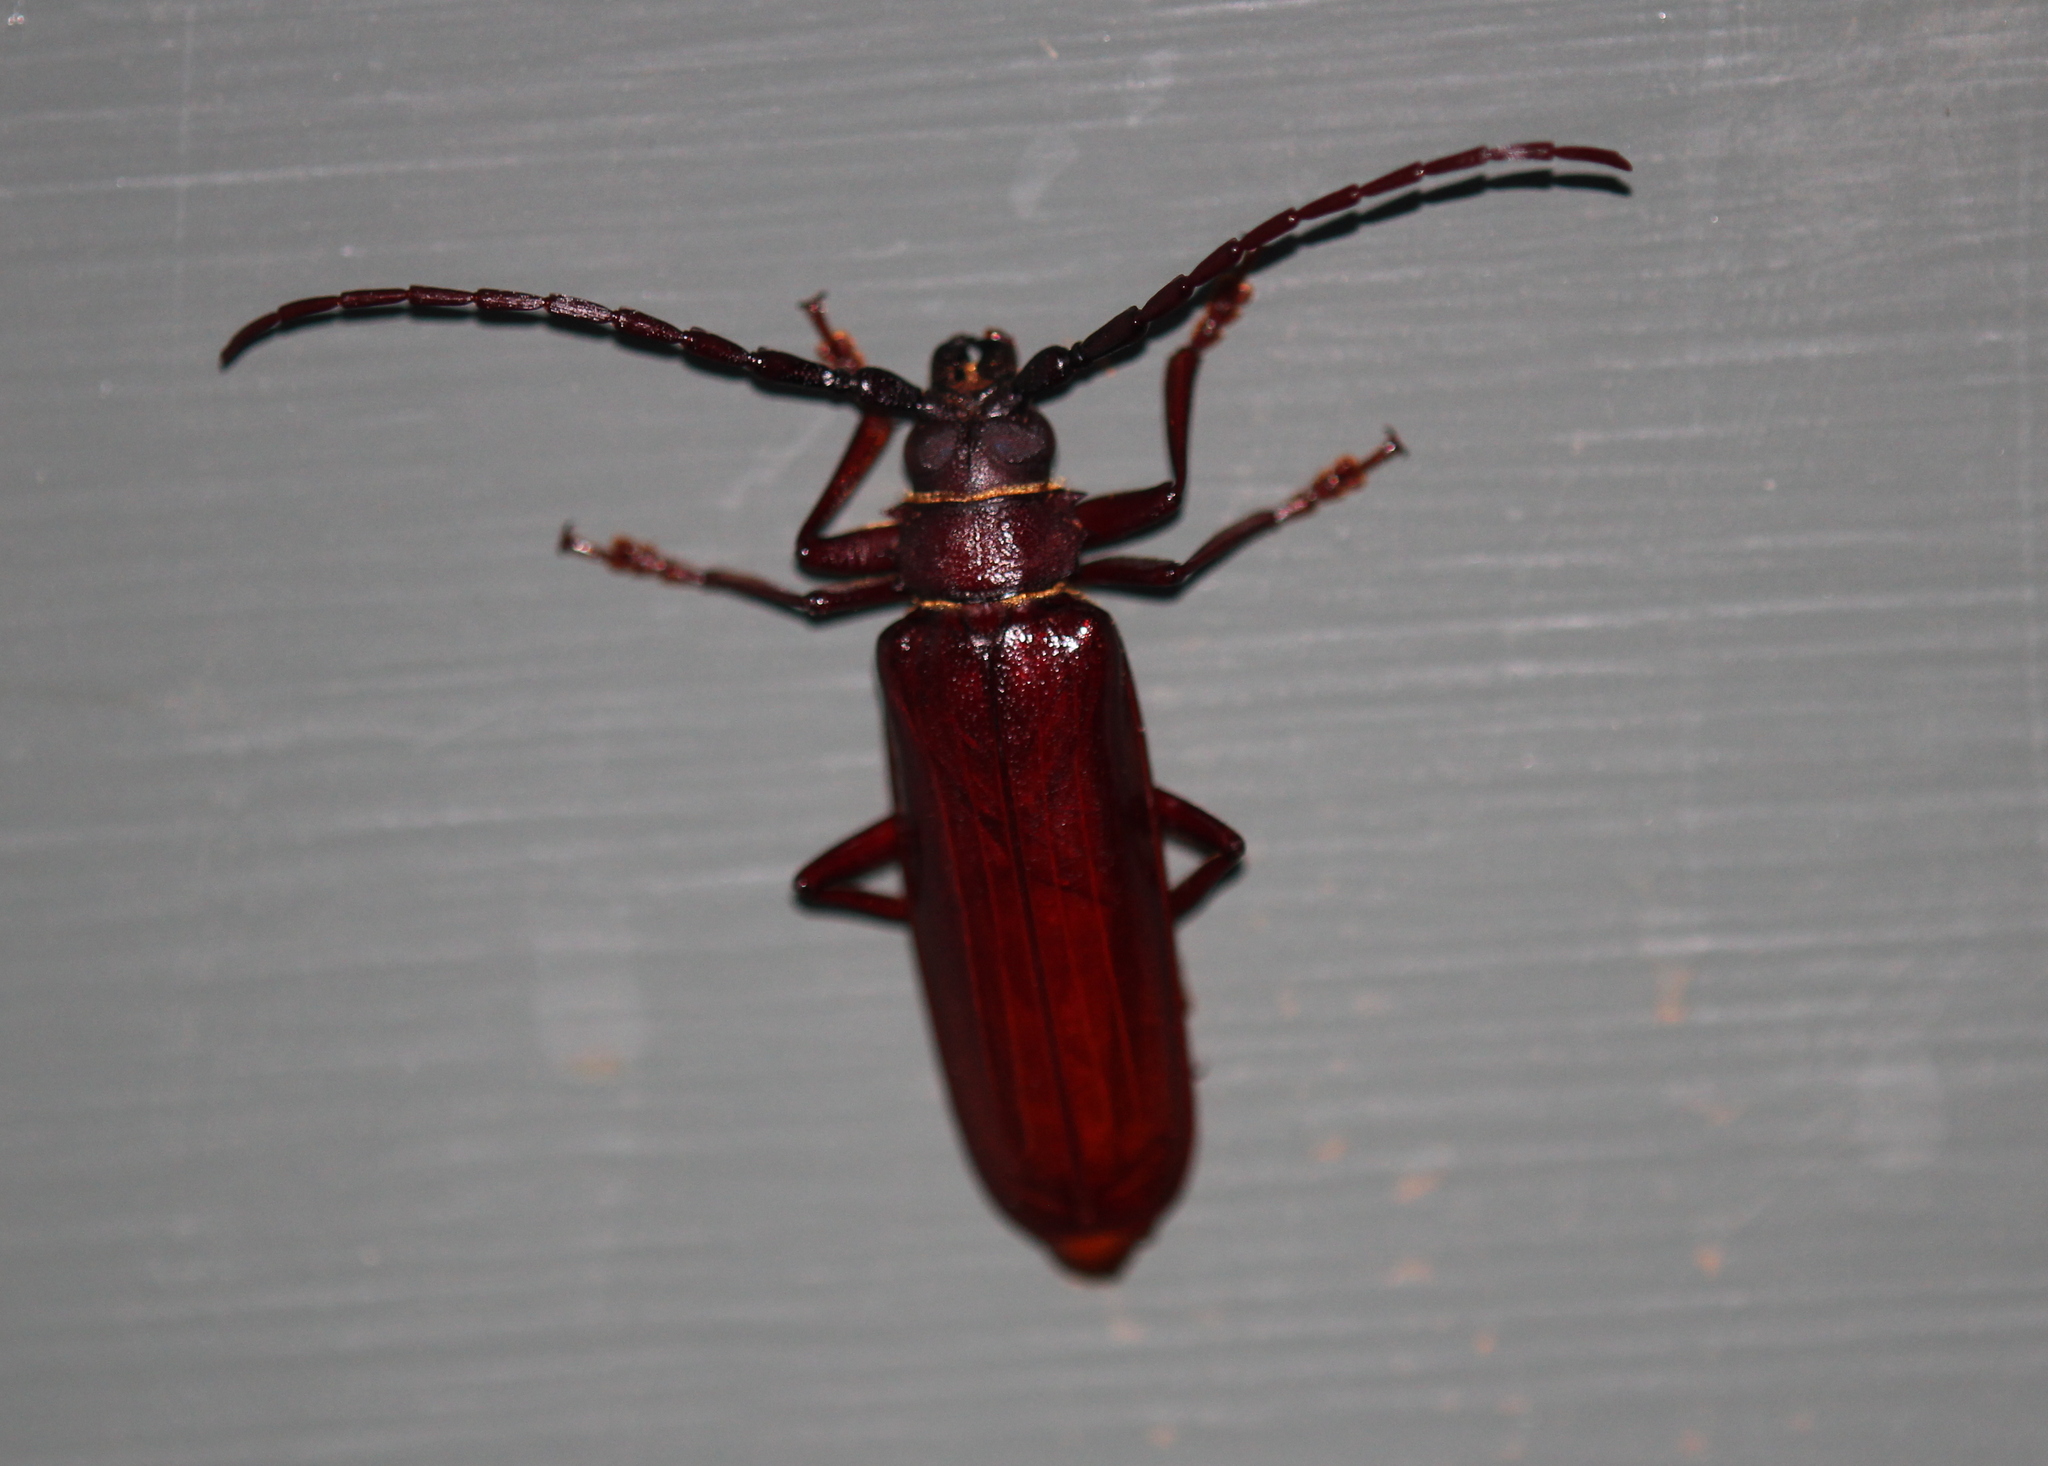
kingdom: Animalia
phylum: Arthropoda
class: Insecta
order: Coleoptera
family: Cerambycidae
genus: Orthosoma
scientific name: Orthosoma brunneum
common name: Brown prionid beetle
